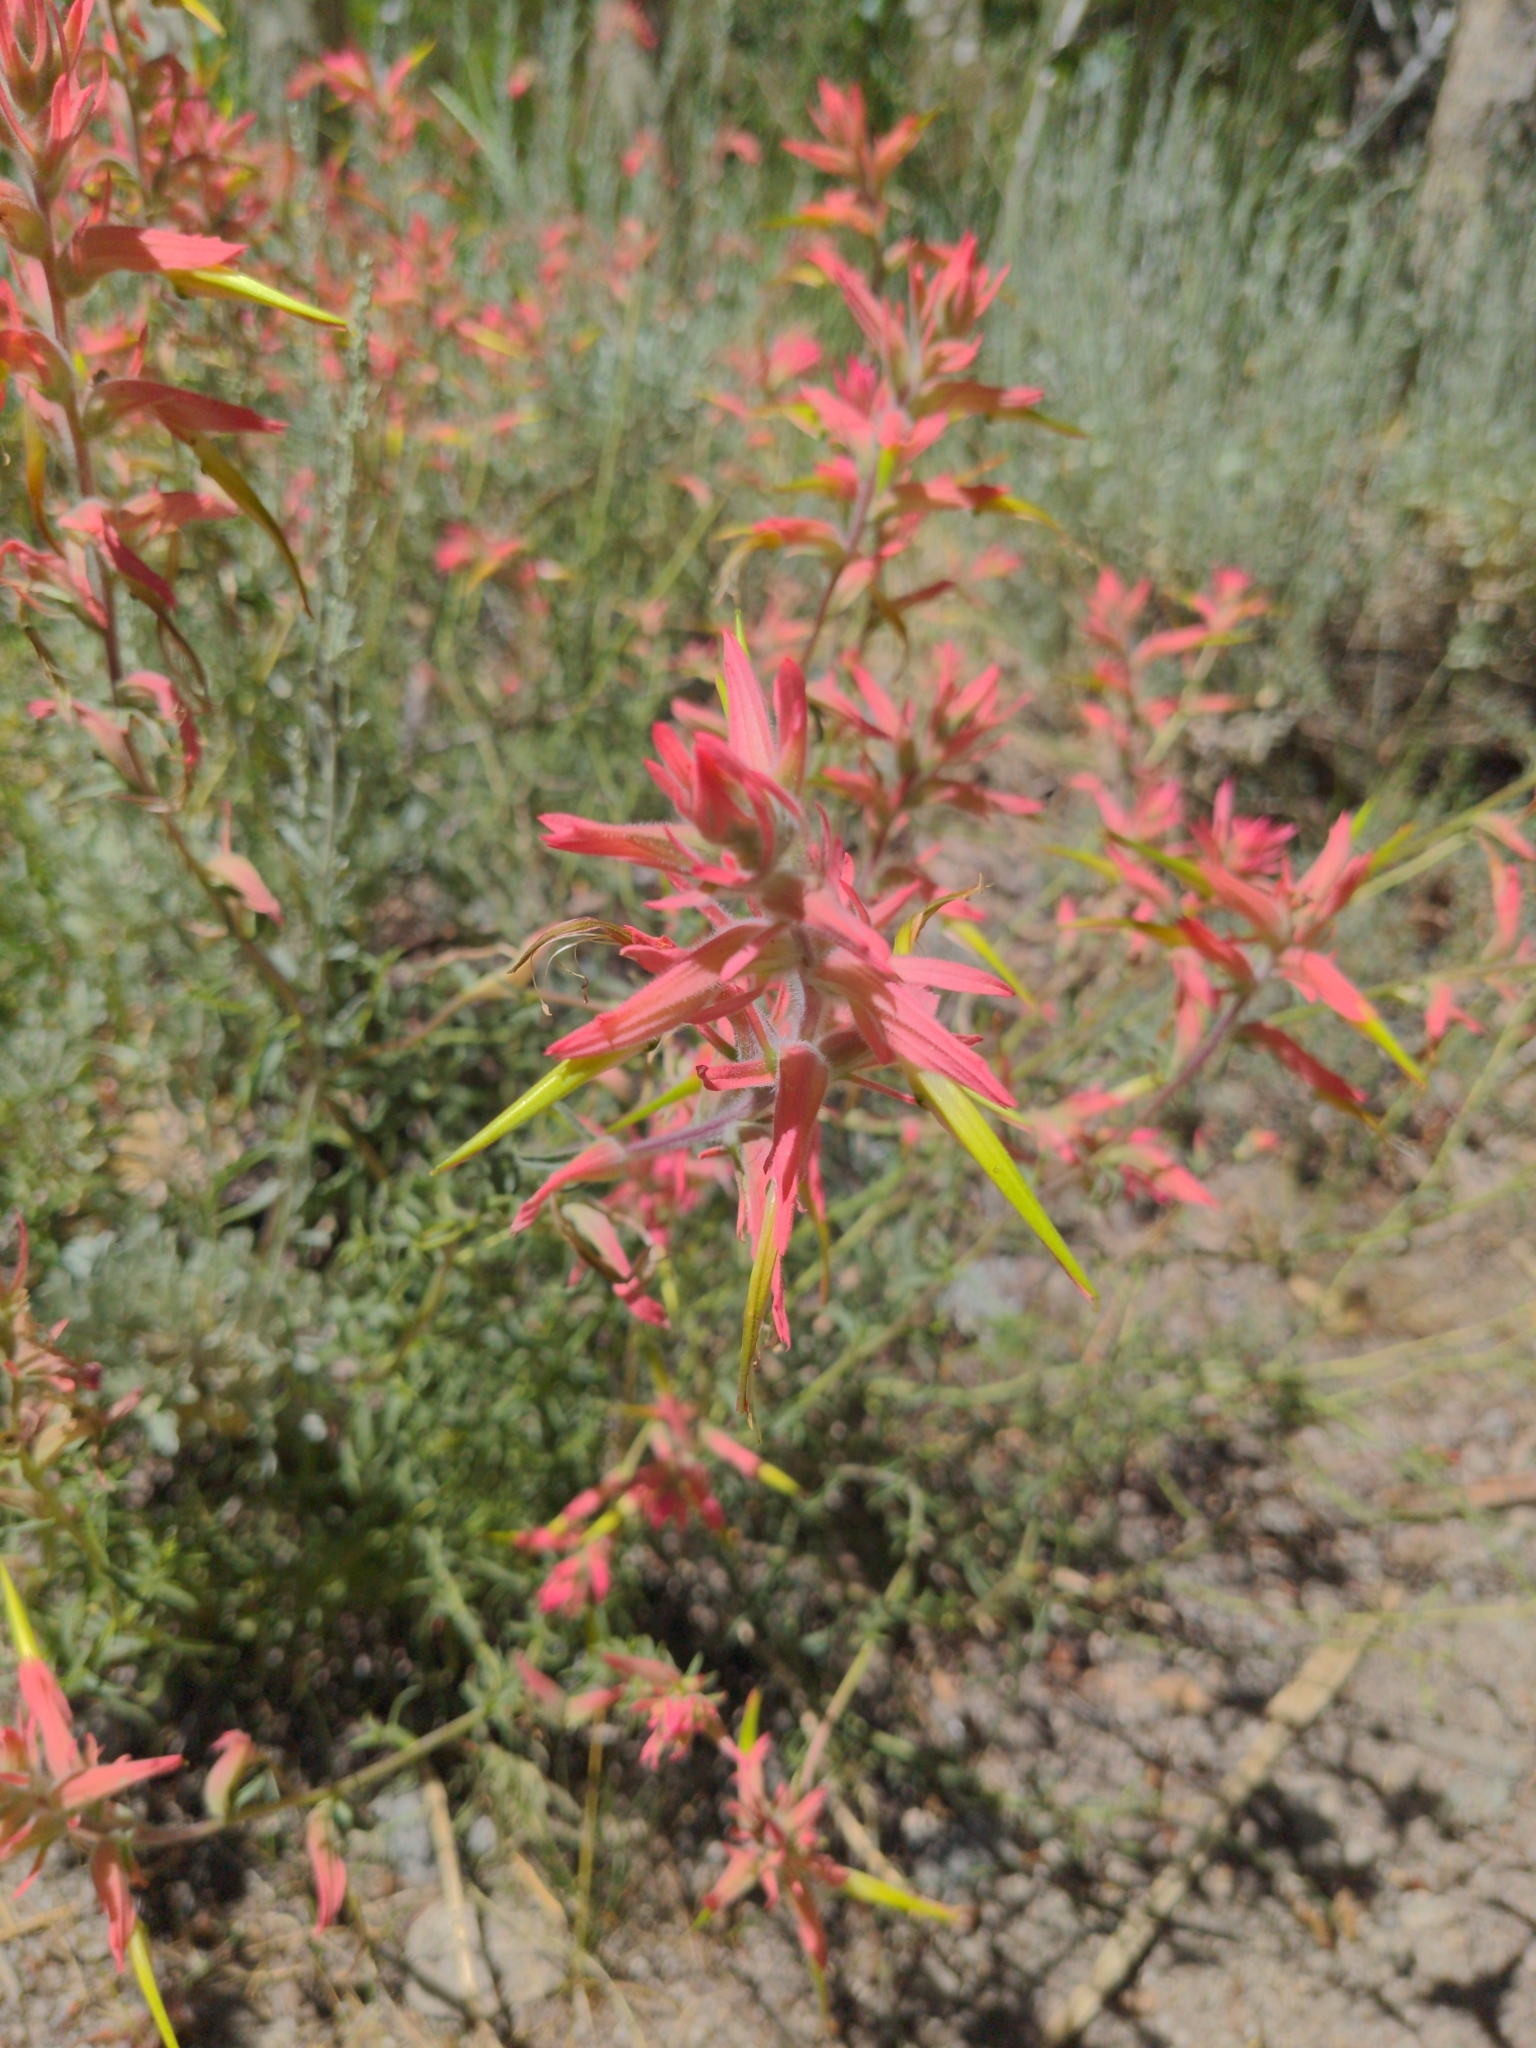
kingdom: Plantae
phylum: Tracheophyta
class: Magnoliopsida
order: Lamiales
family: Orobanchaceae
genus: Castilleja
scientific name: Castilleja linariifolia
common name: Wyoming paintbrush
